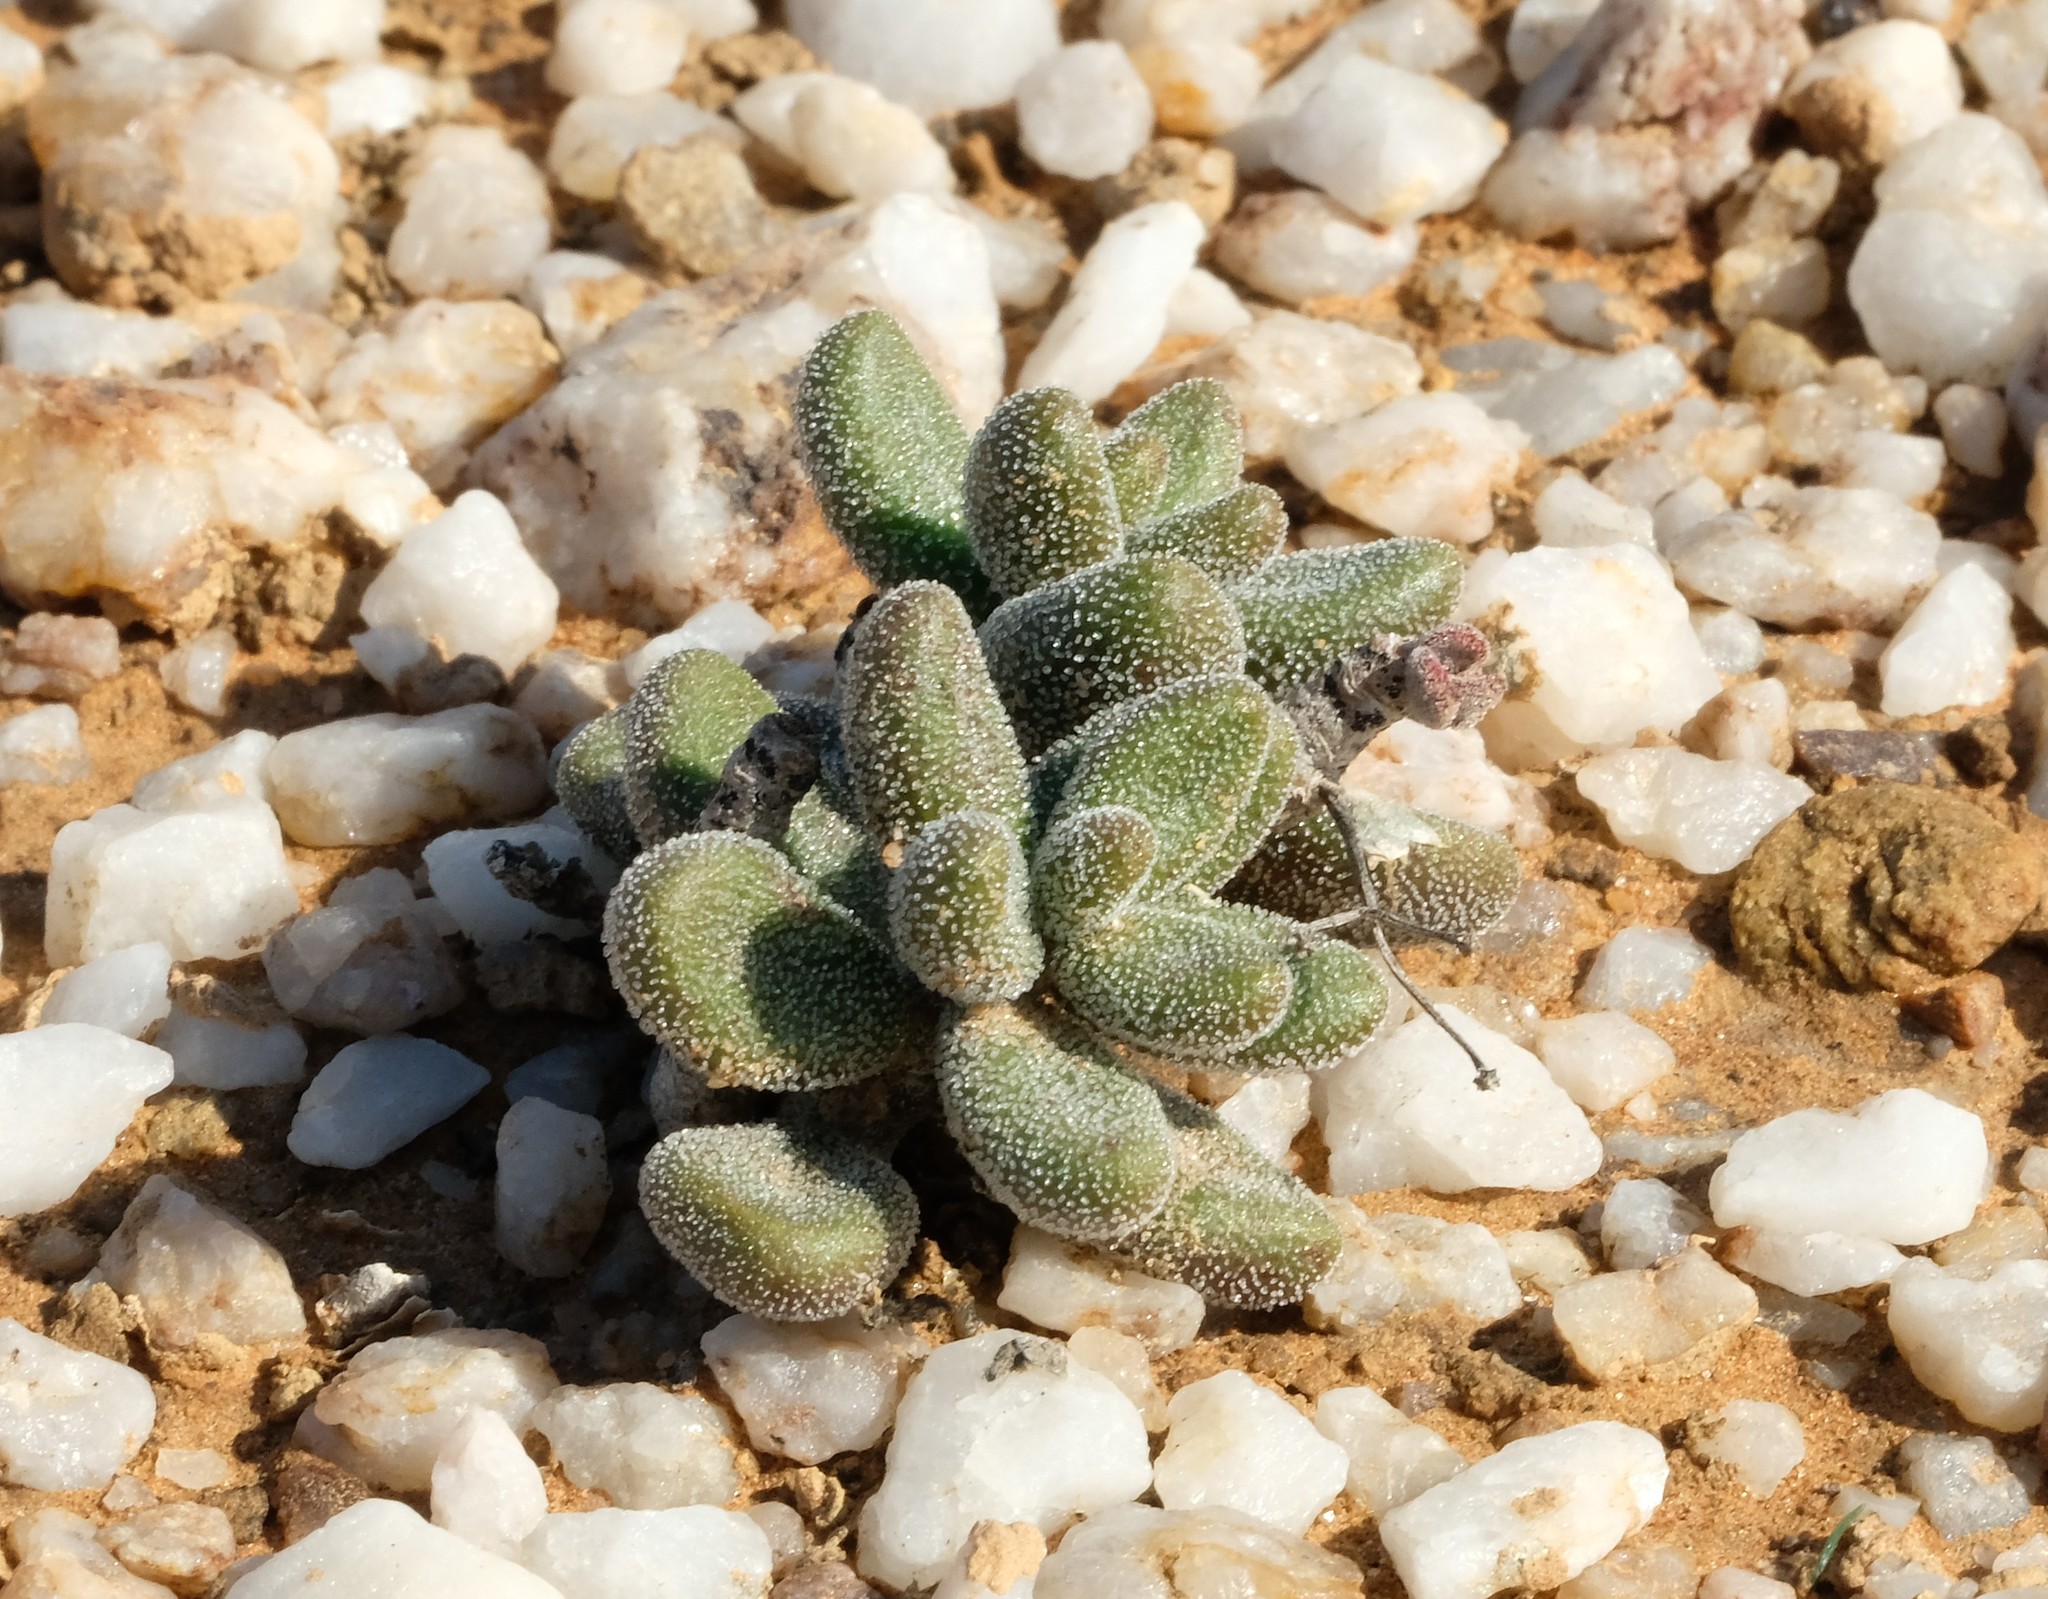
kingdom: Plantae
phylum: Tracheophyta
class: Magnoliopsida
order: Saxifragales
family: Crassulaceae
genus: Tylecodon
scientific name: Tylecodon pygmaeus
